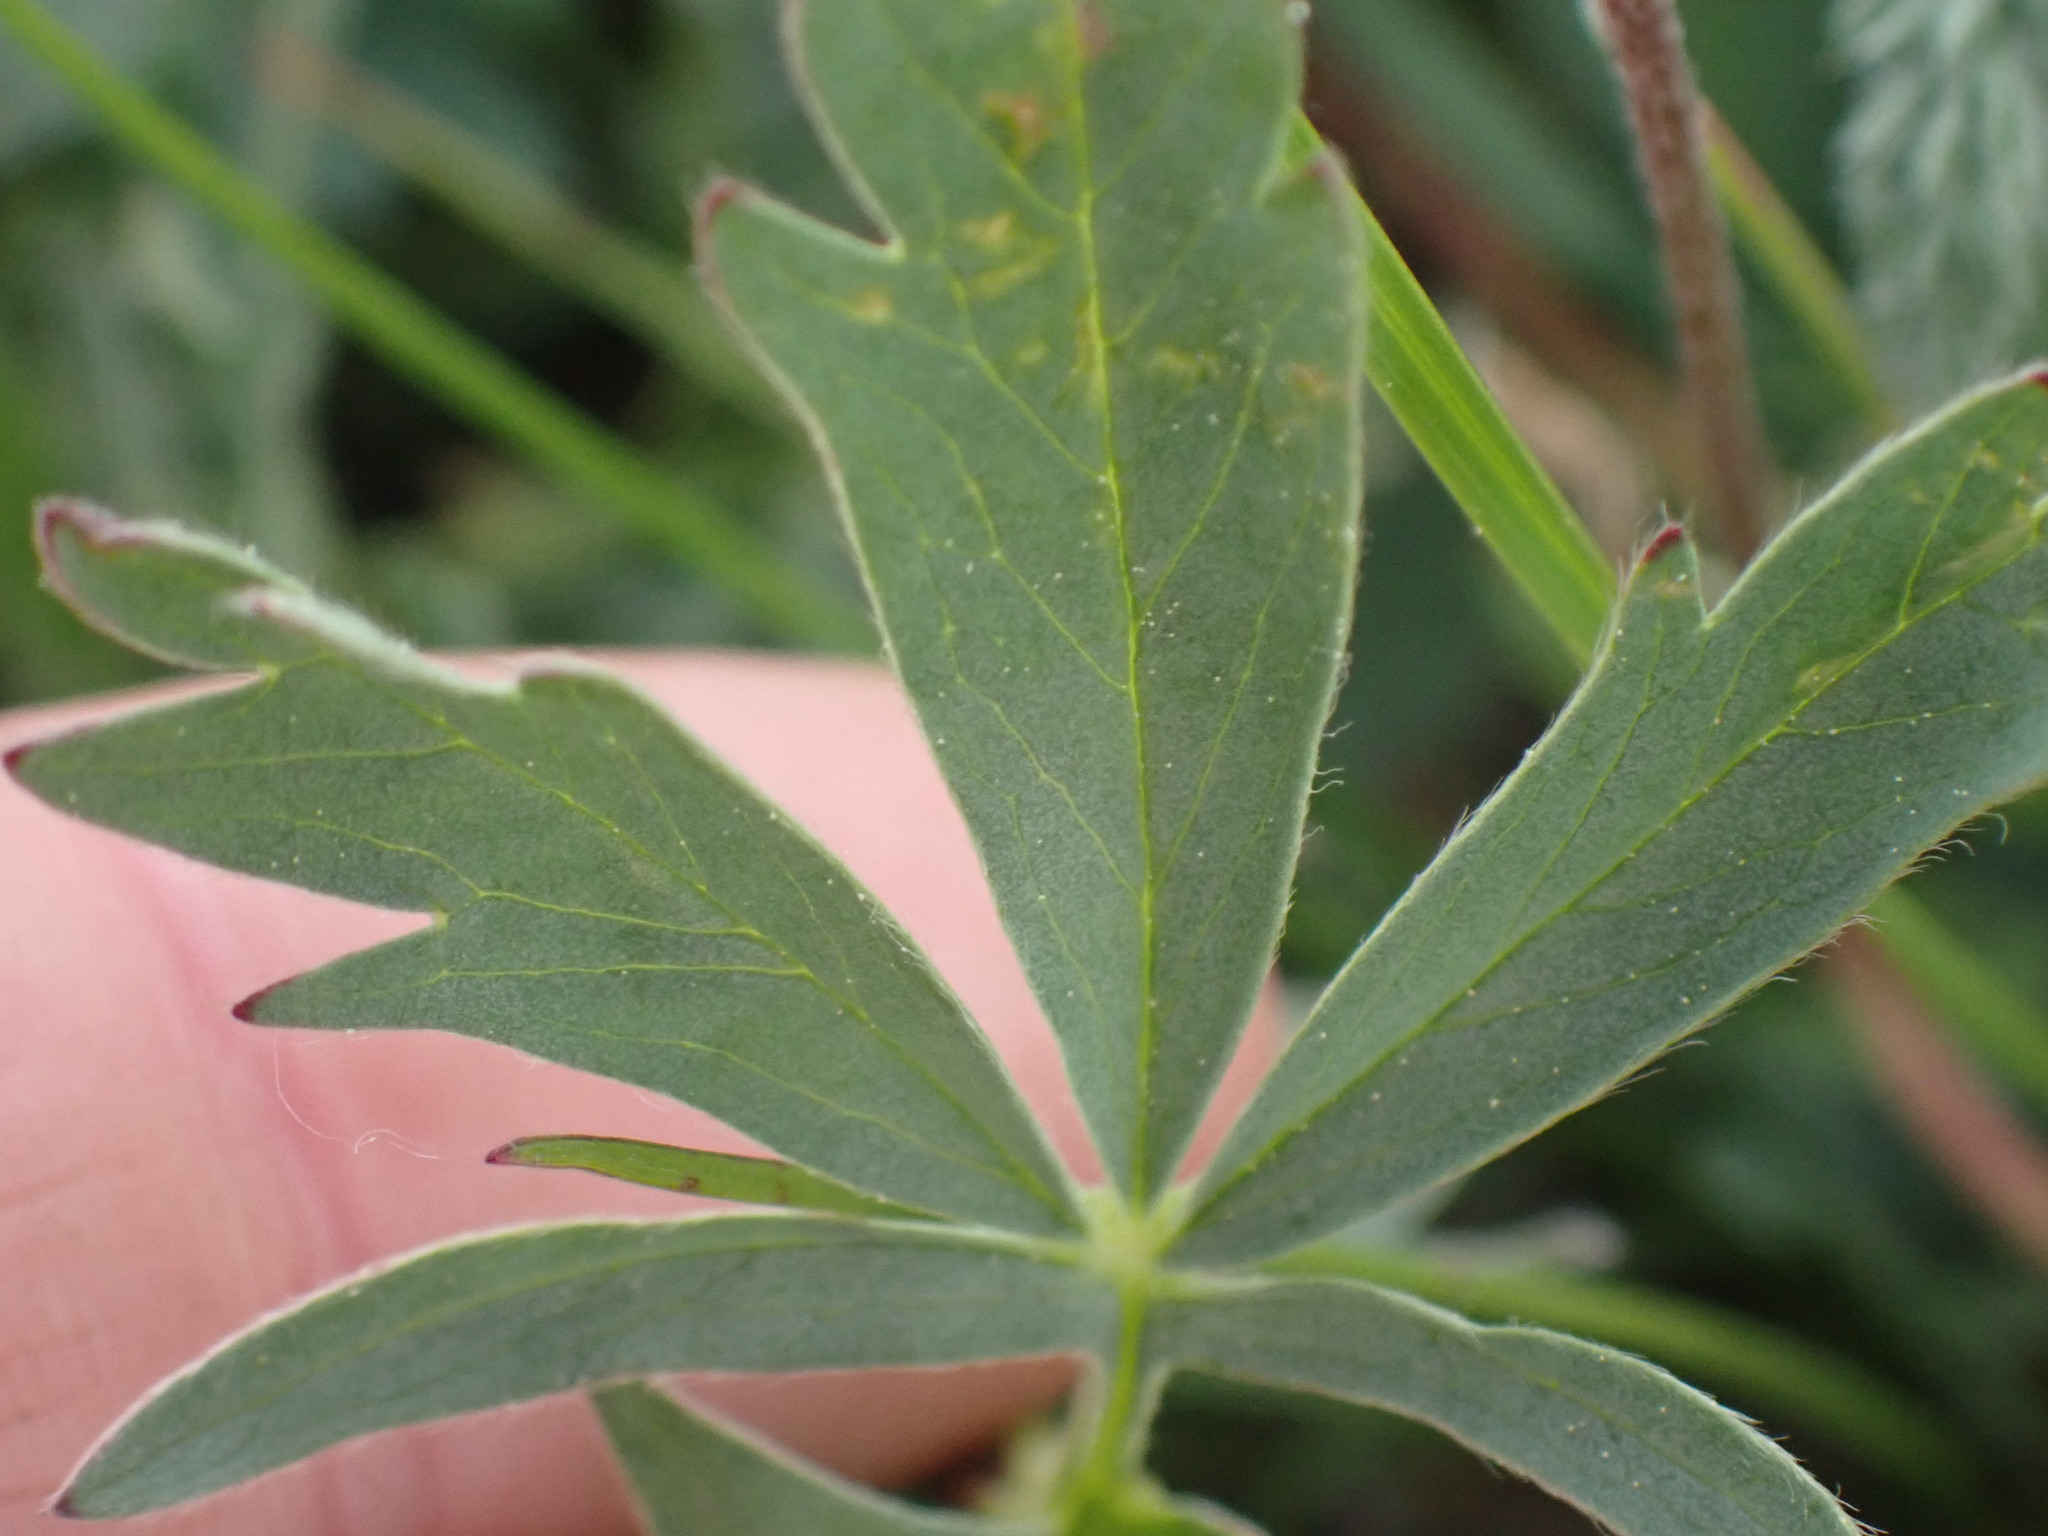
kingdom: Plantae
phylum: Tracheophyta
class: Magnoliopsida
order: Rosales
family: Rosaceae
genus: Potentilla
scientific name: Potentilla glaucophylla
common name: Blue-leaved cinquefoil
